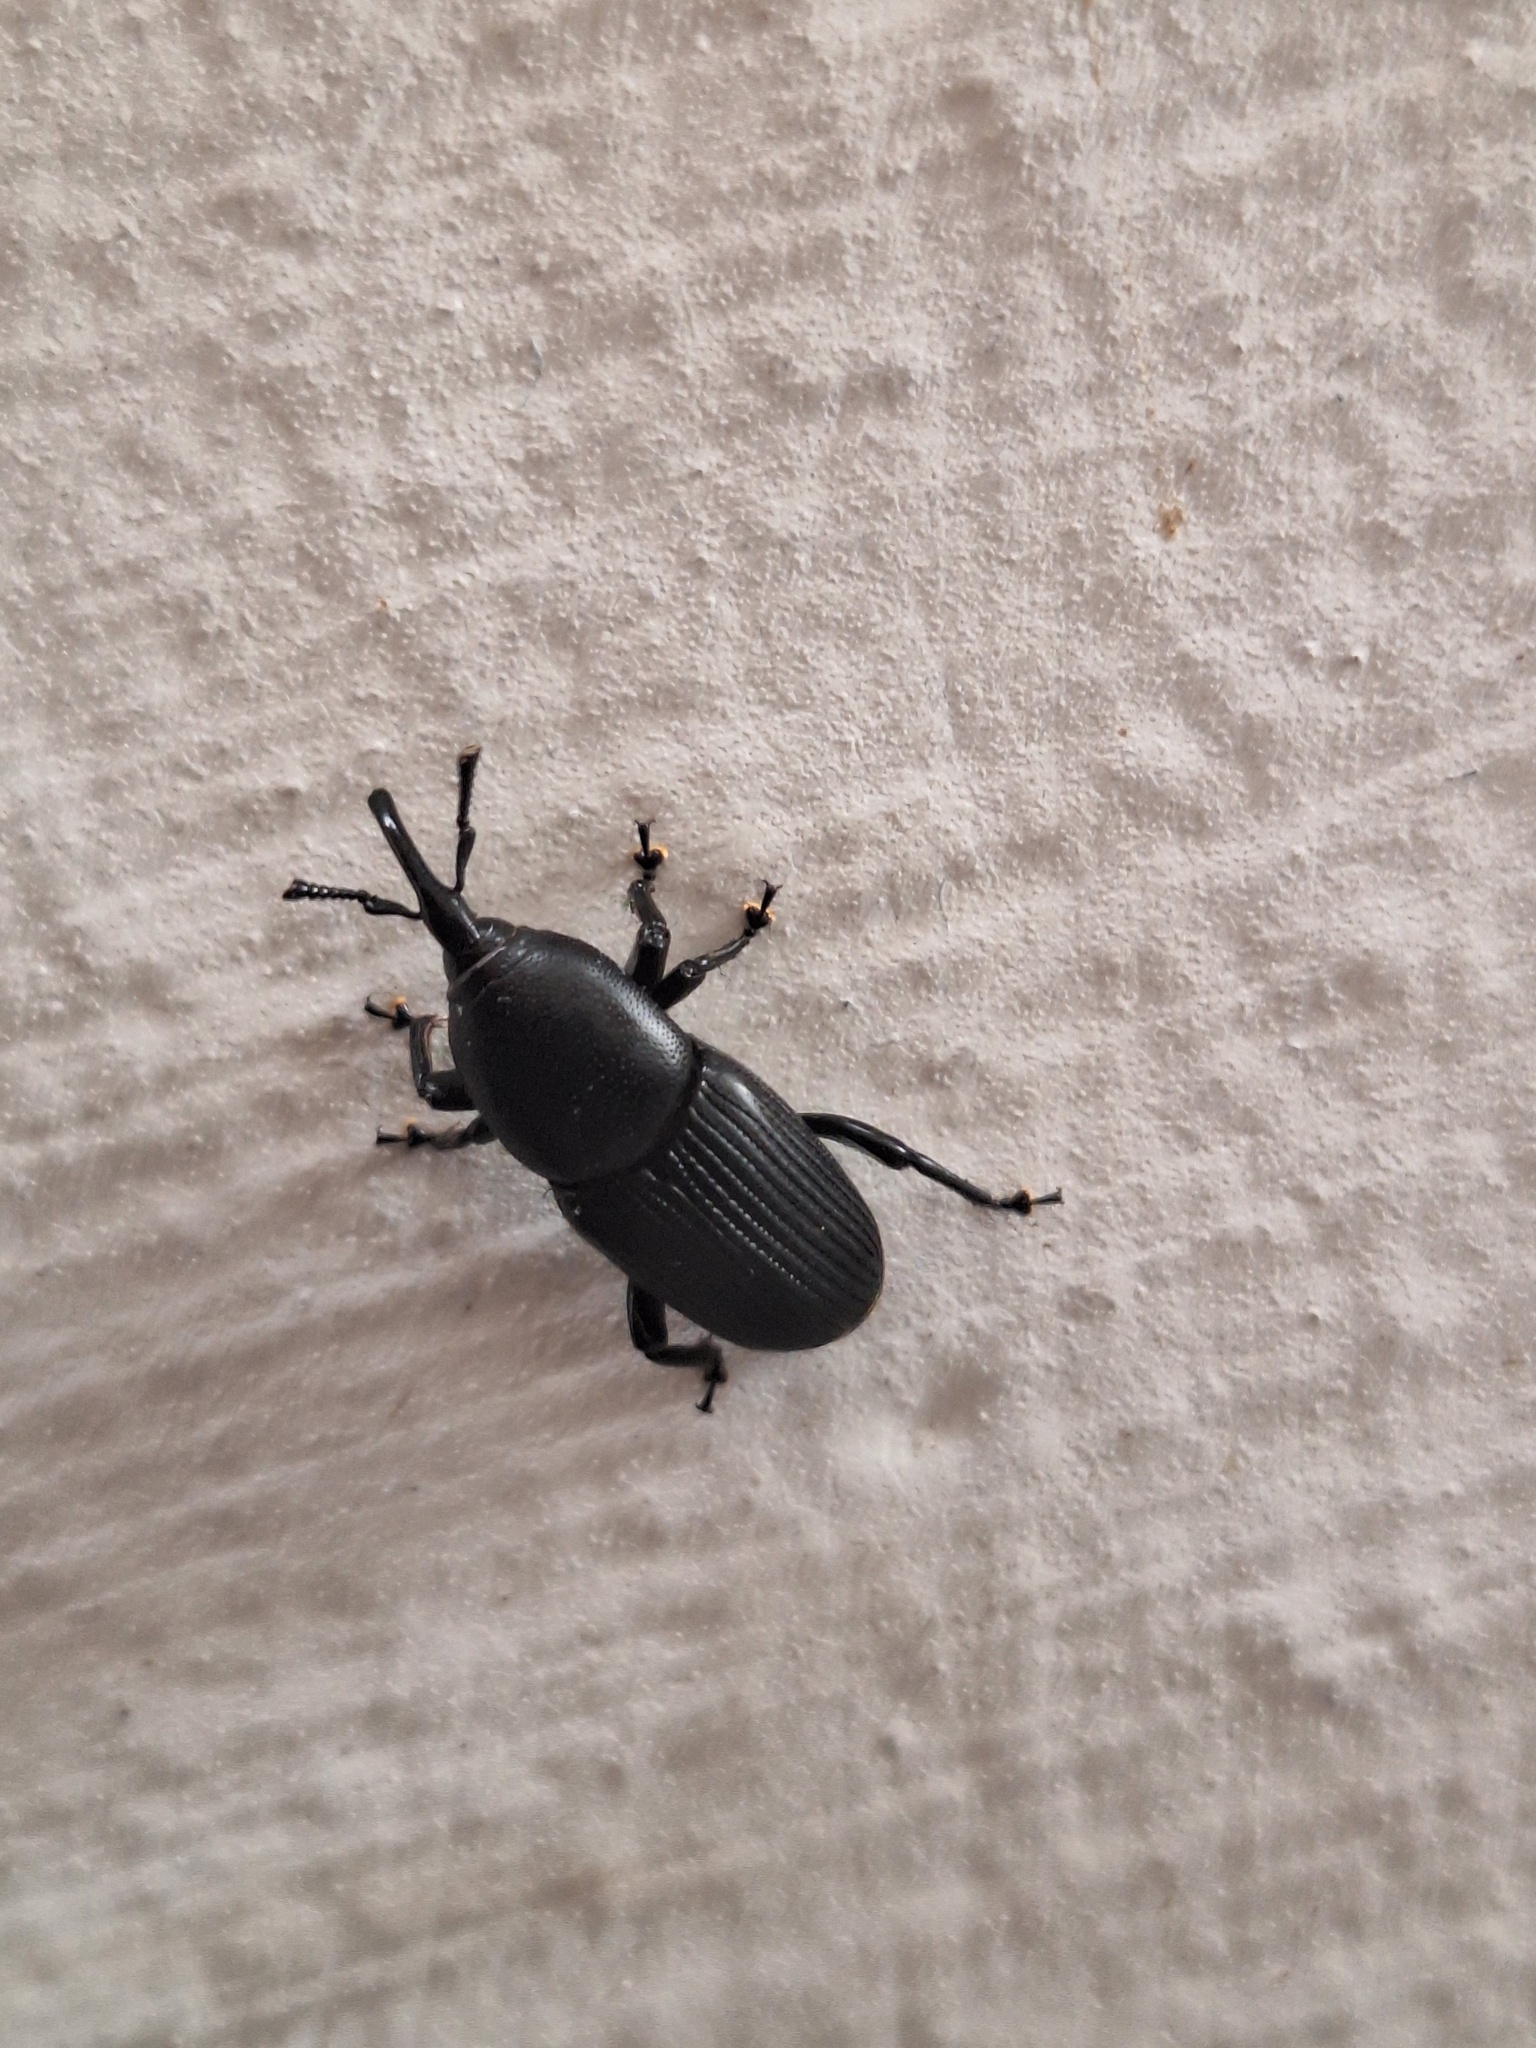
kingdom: Animalia
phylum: Arthropoda
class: Insecta
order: Coleoptera
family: Dryophthoridae
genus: Scyphophorus
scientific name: Scyphophorus acupunctatus
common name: Weevil
